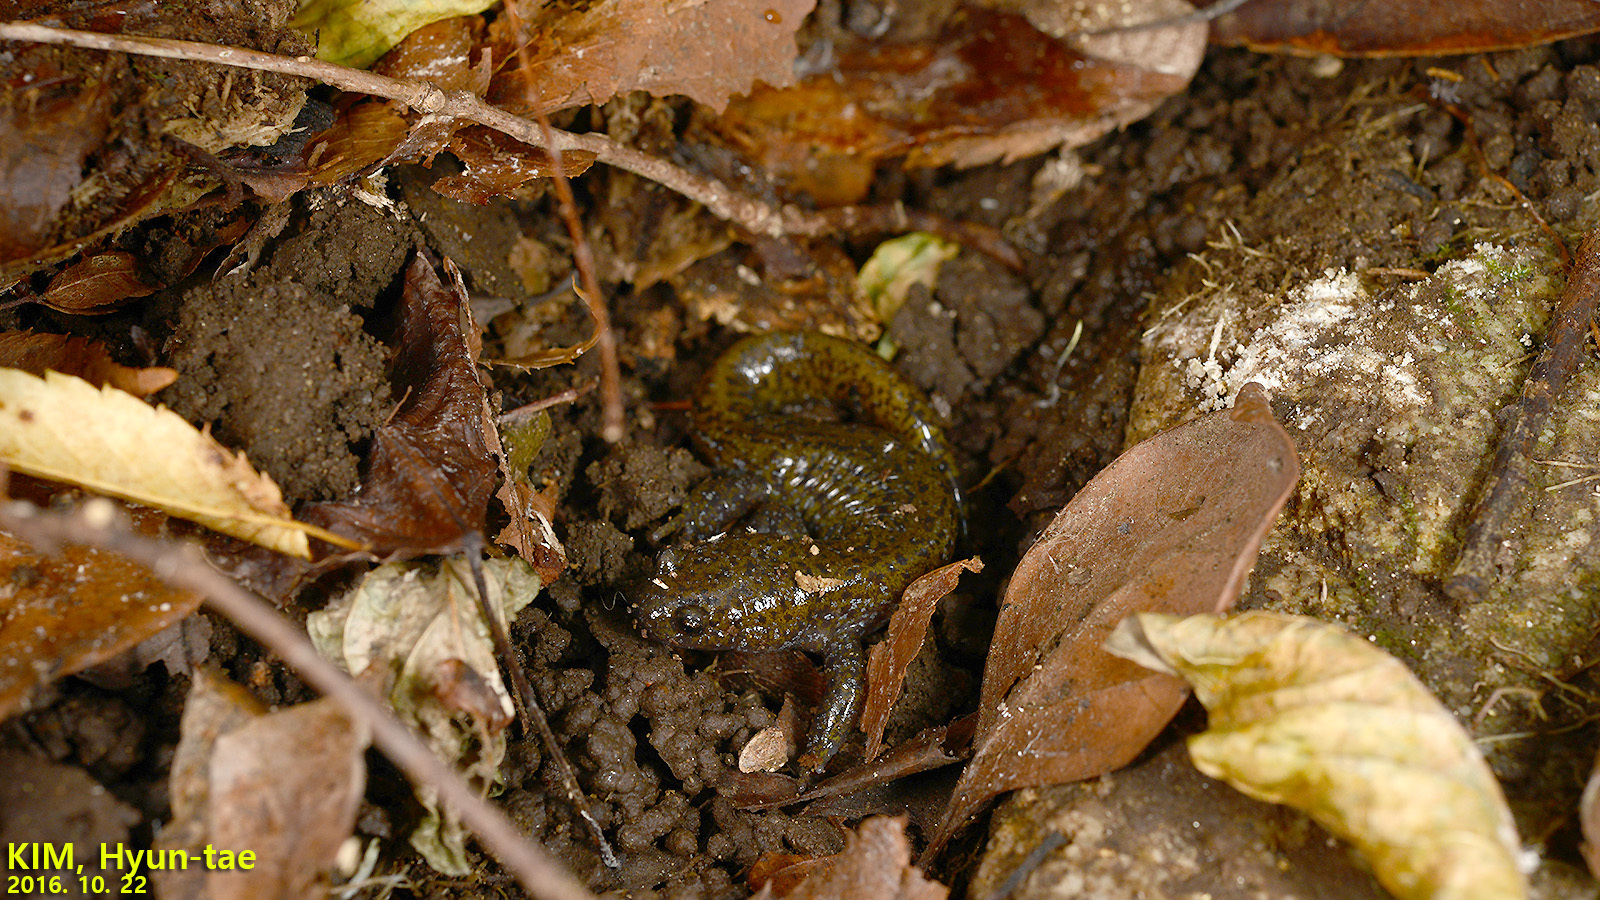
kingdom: Animalia
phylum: Chordata
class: Amphibia
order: Caudata
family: Hynobiidae
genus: Hynobius
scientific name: Hynobius leechii
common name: Gensan salamander
